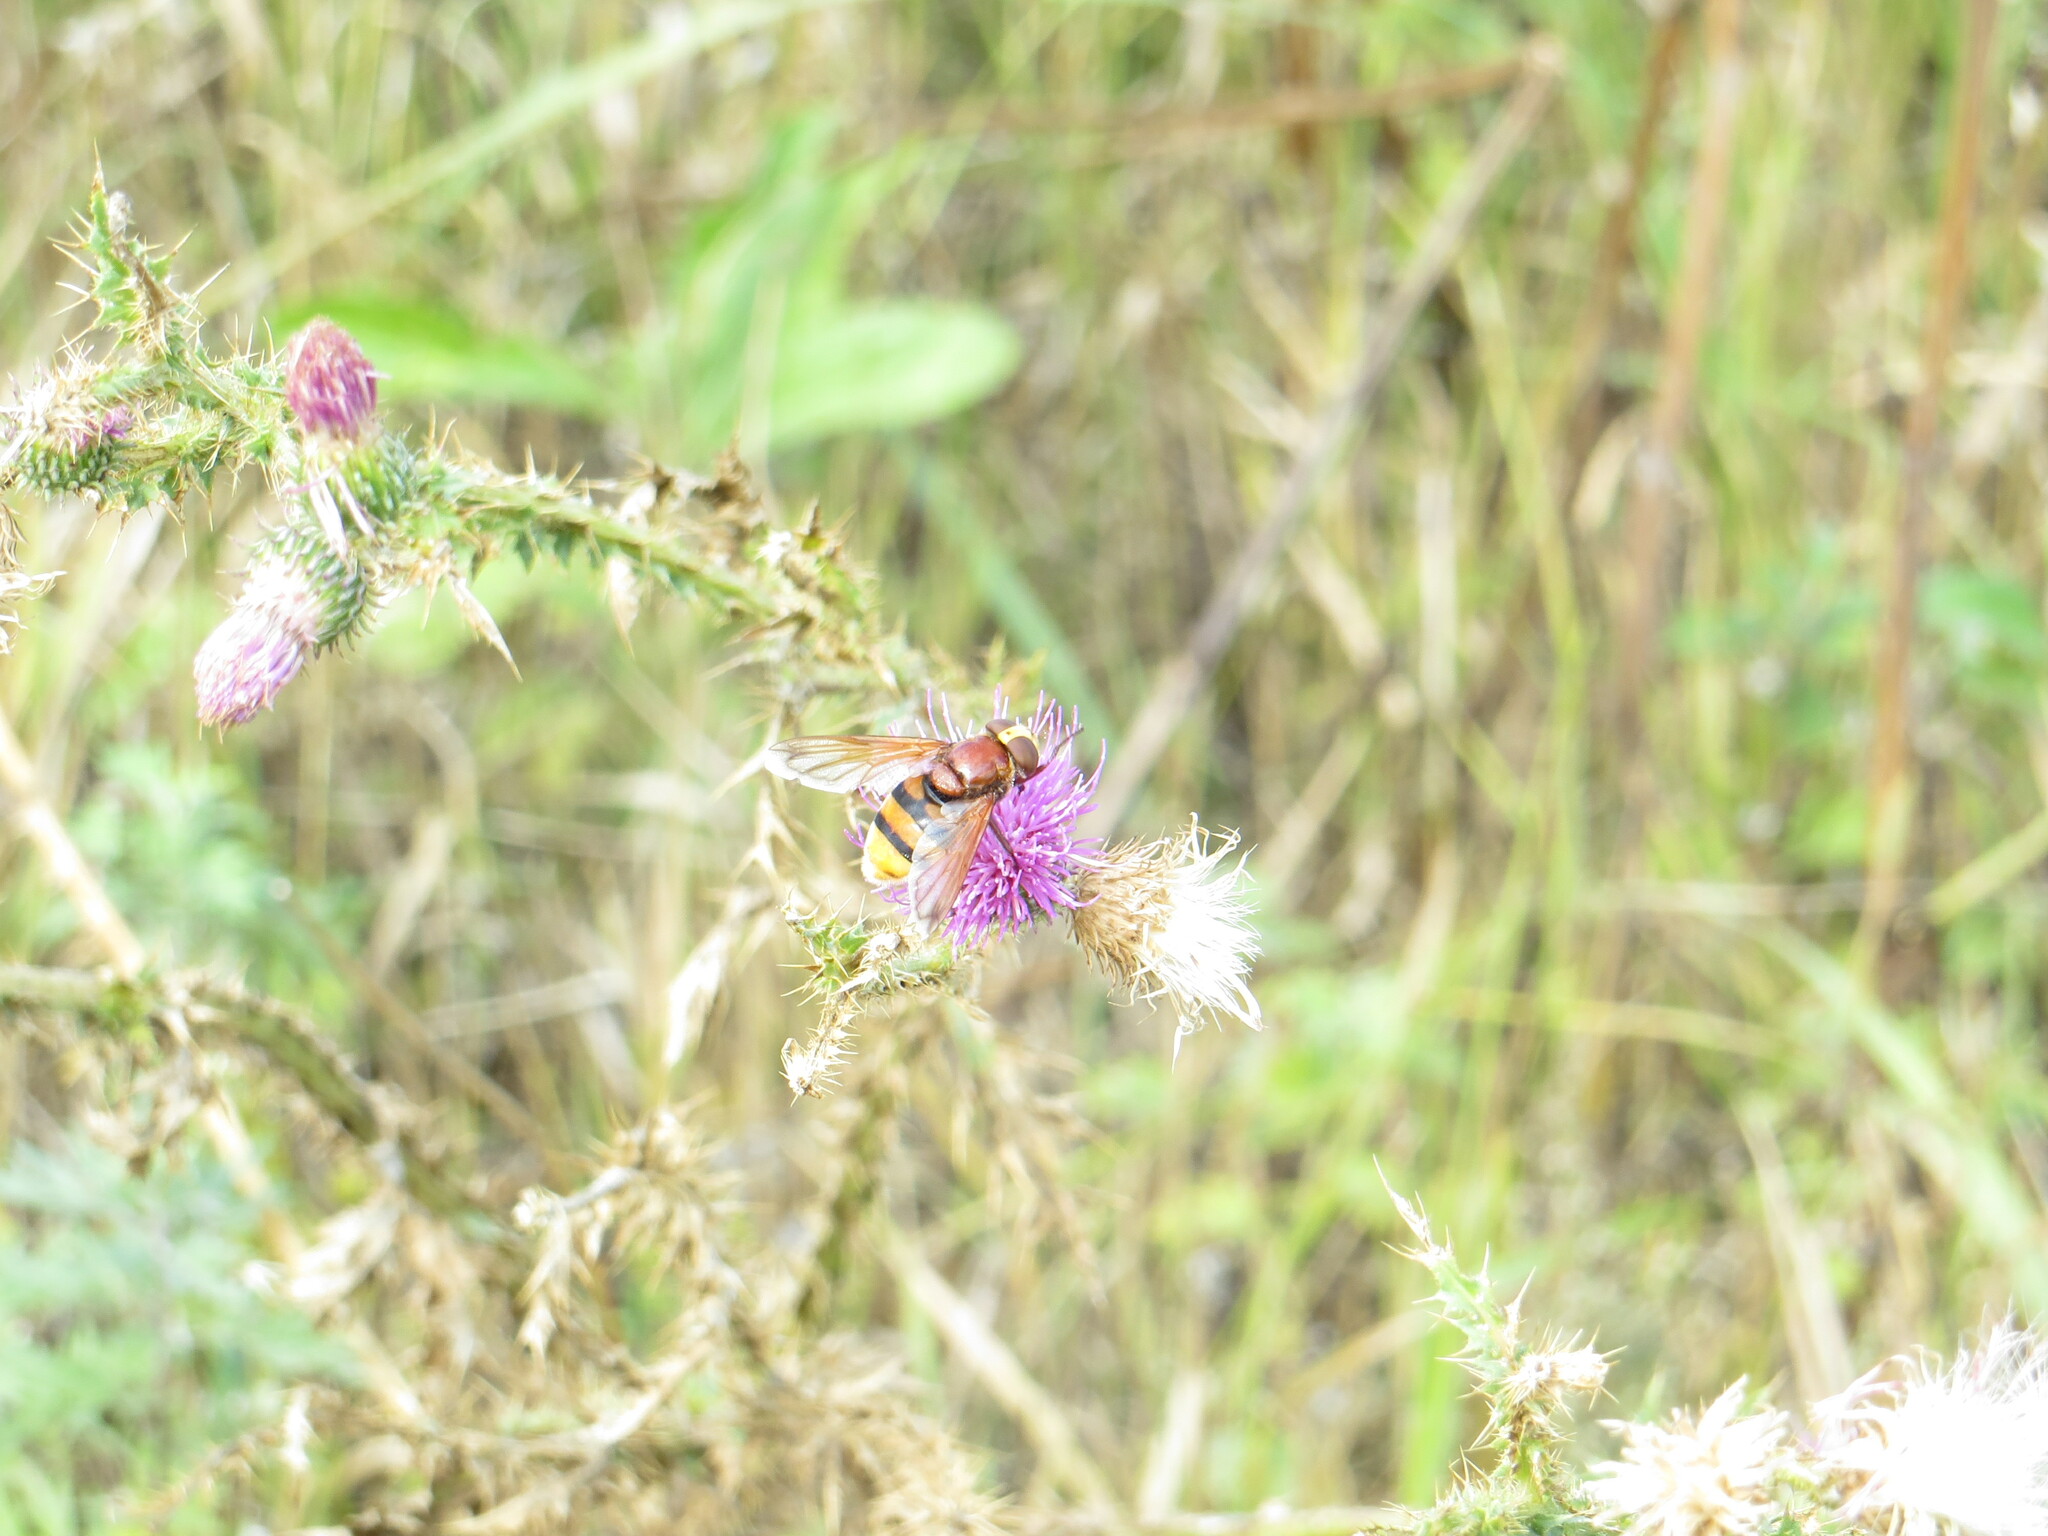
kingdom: Animalia
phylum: Arthropoda
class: Insecta
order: Diptera
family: Syrphidae
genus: Volucella
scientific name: Volucella zonaria
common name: Hornet hoverfly
